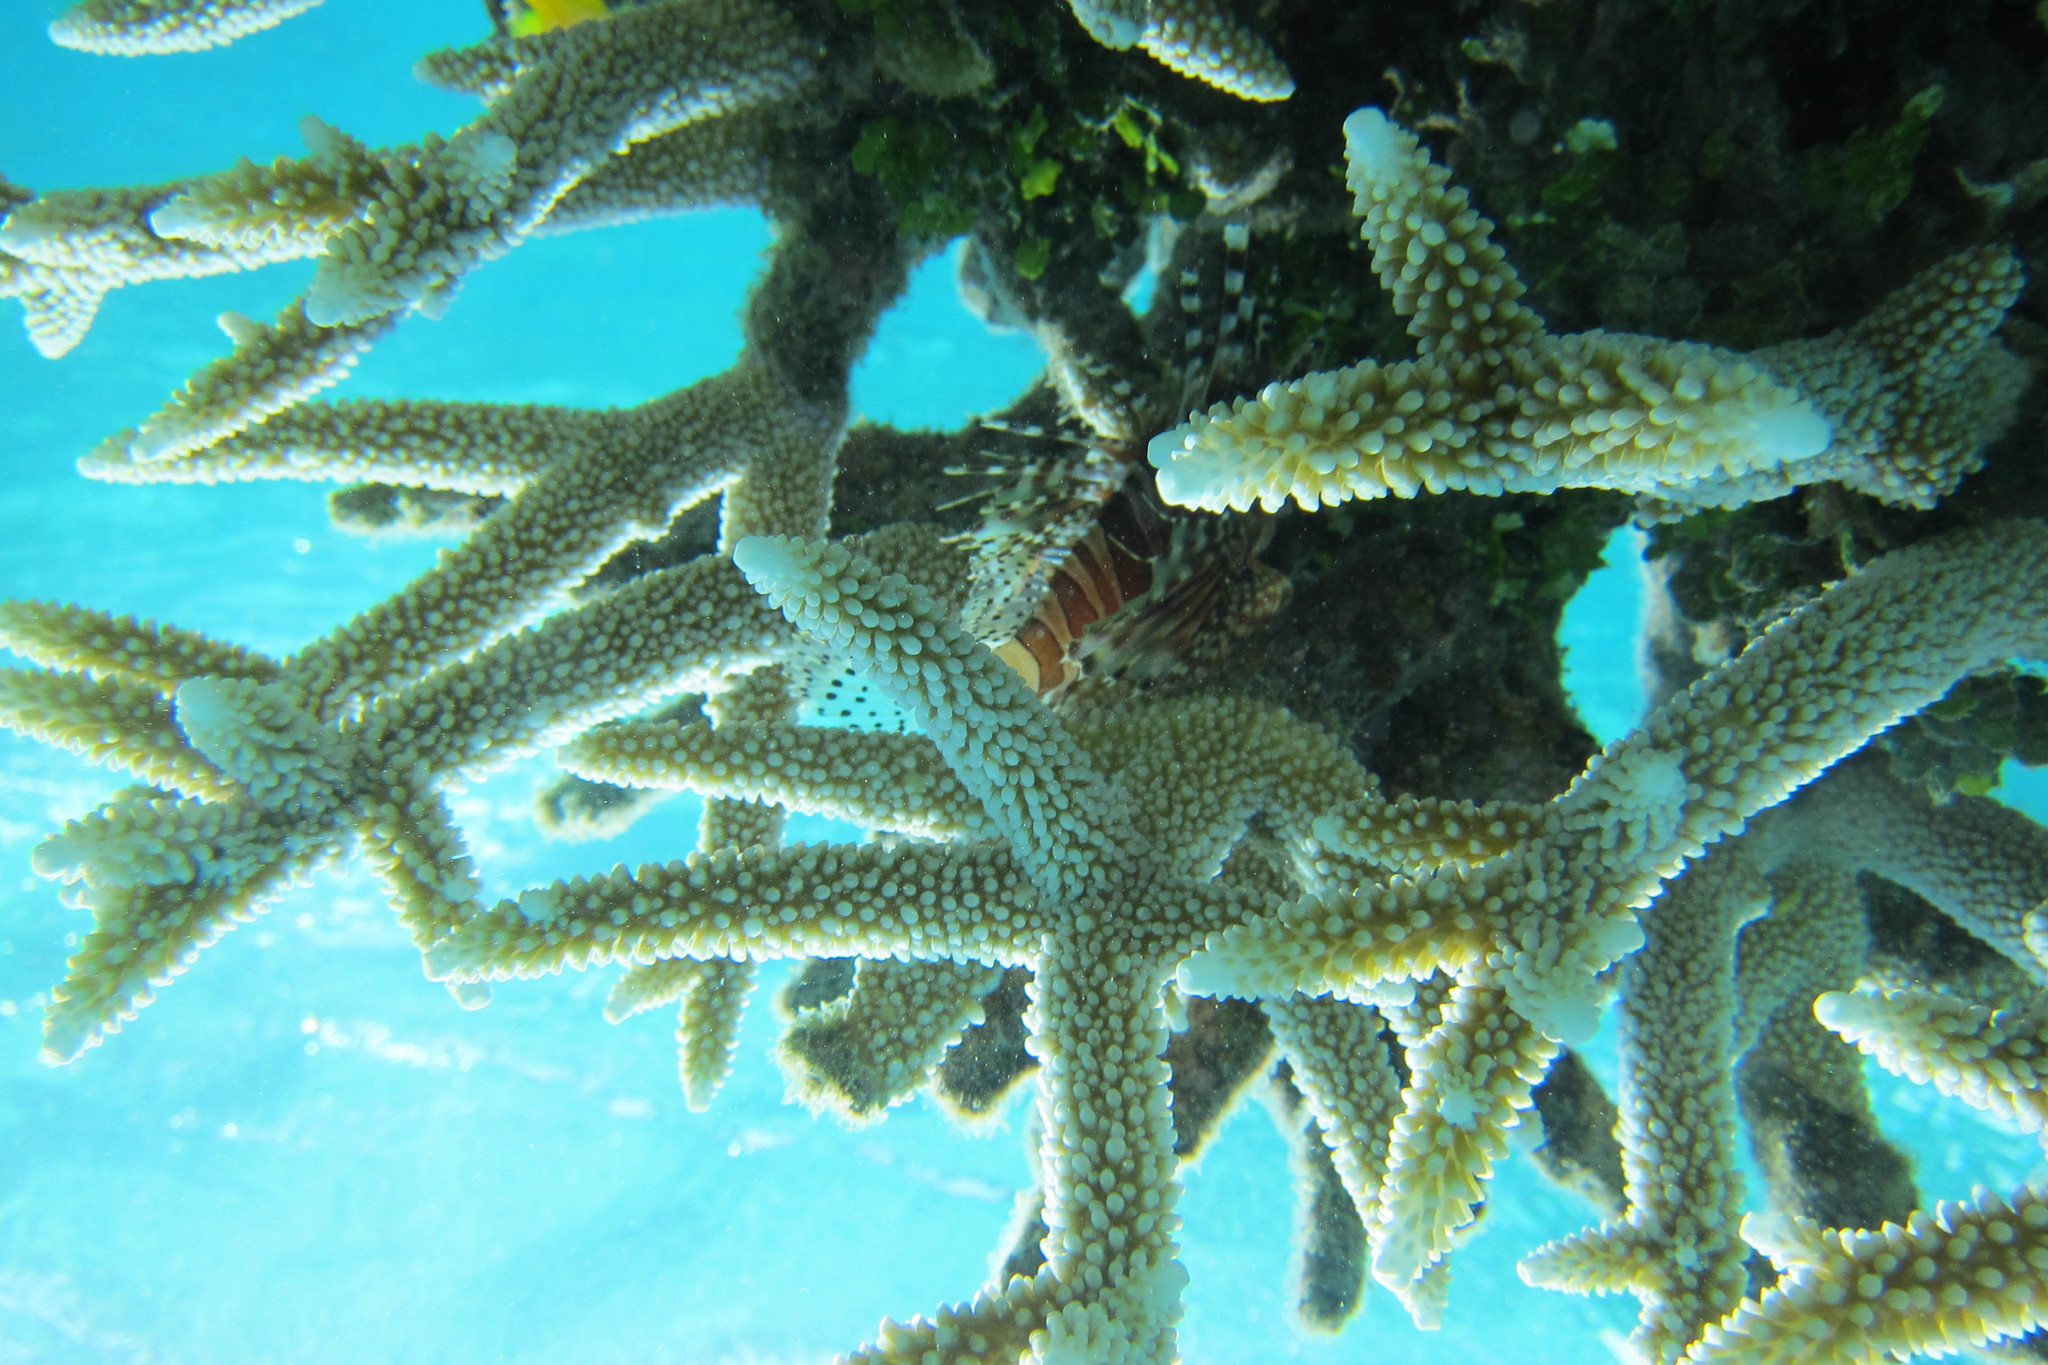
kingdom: Animalia
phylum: Chordata
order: Scorpaeniformes
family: Scorpaenidae
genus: Dendrochirus
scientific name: Dendrochirus zebra
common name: Zebra lionfish
